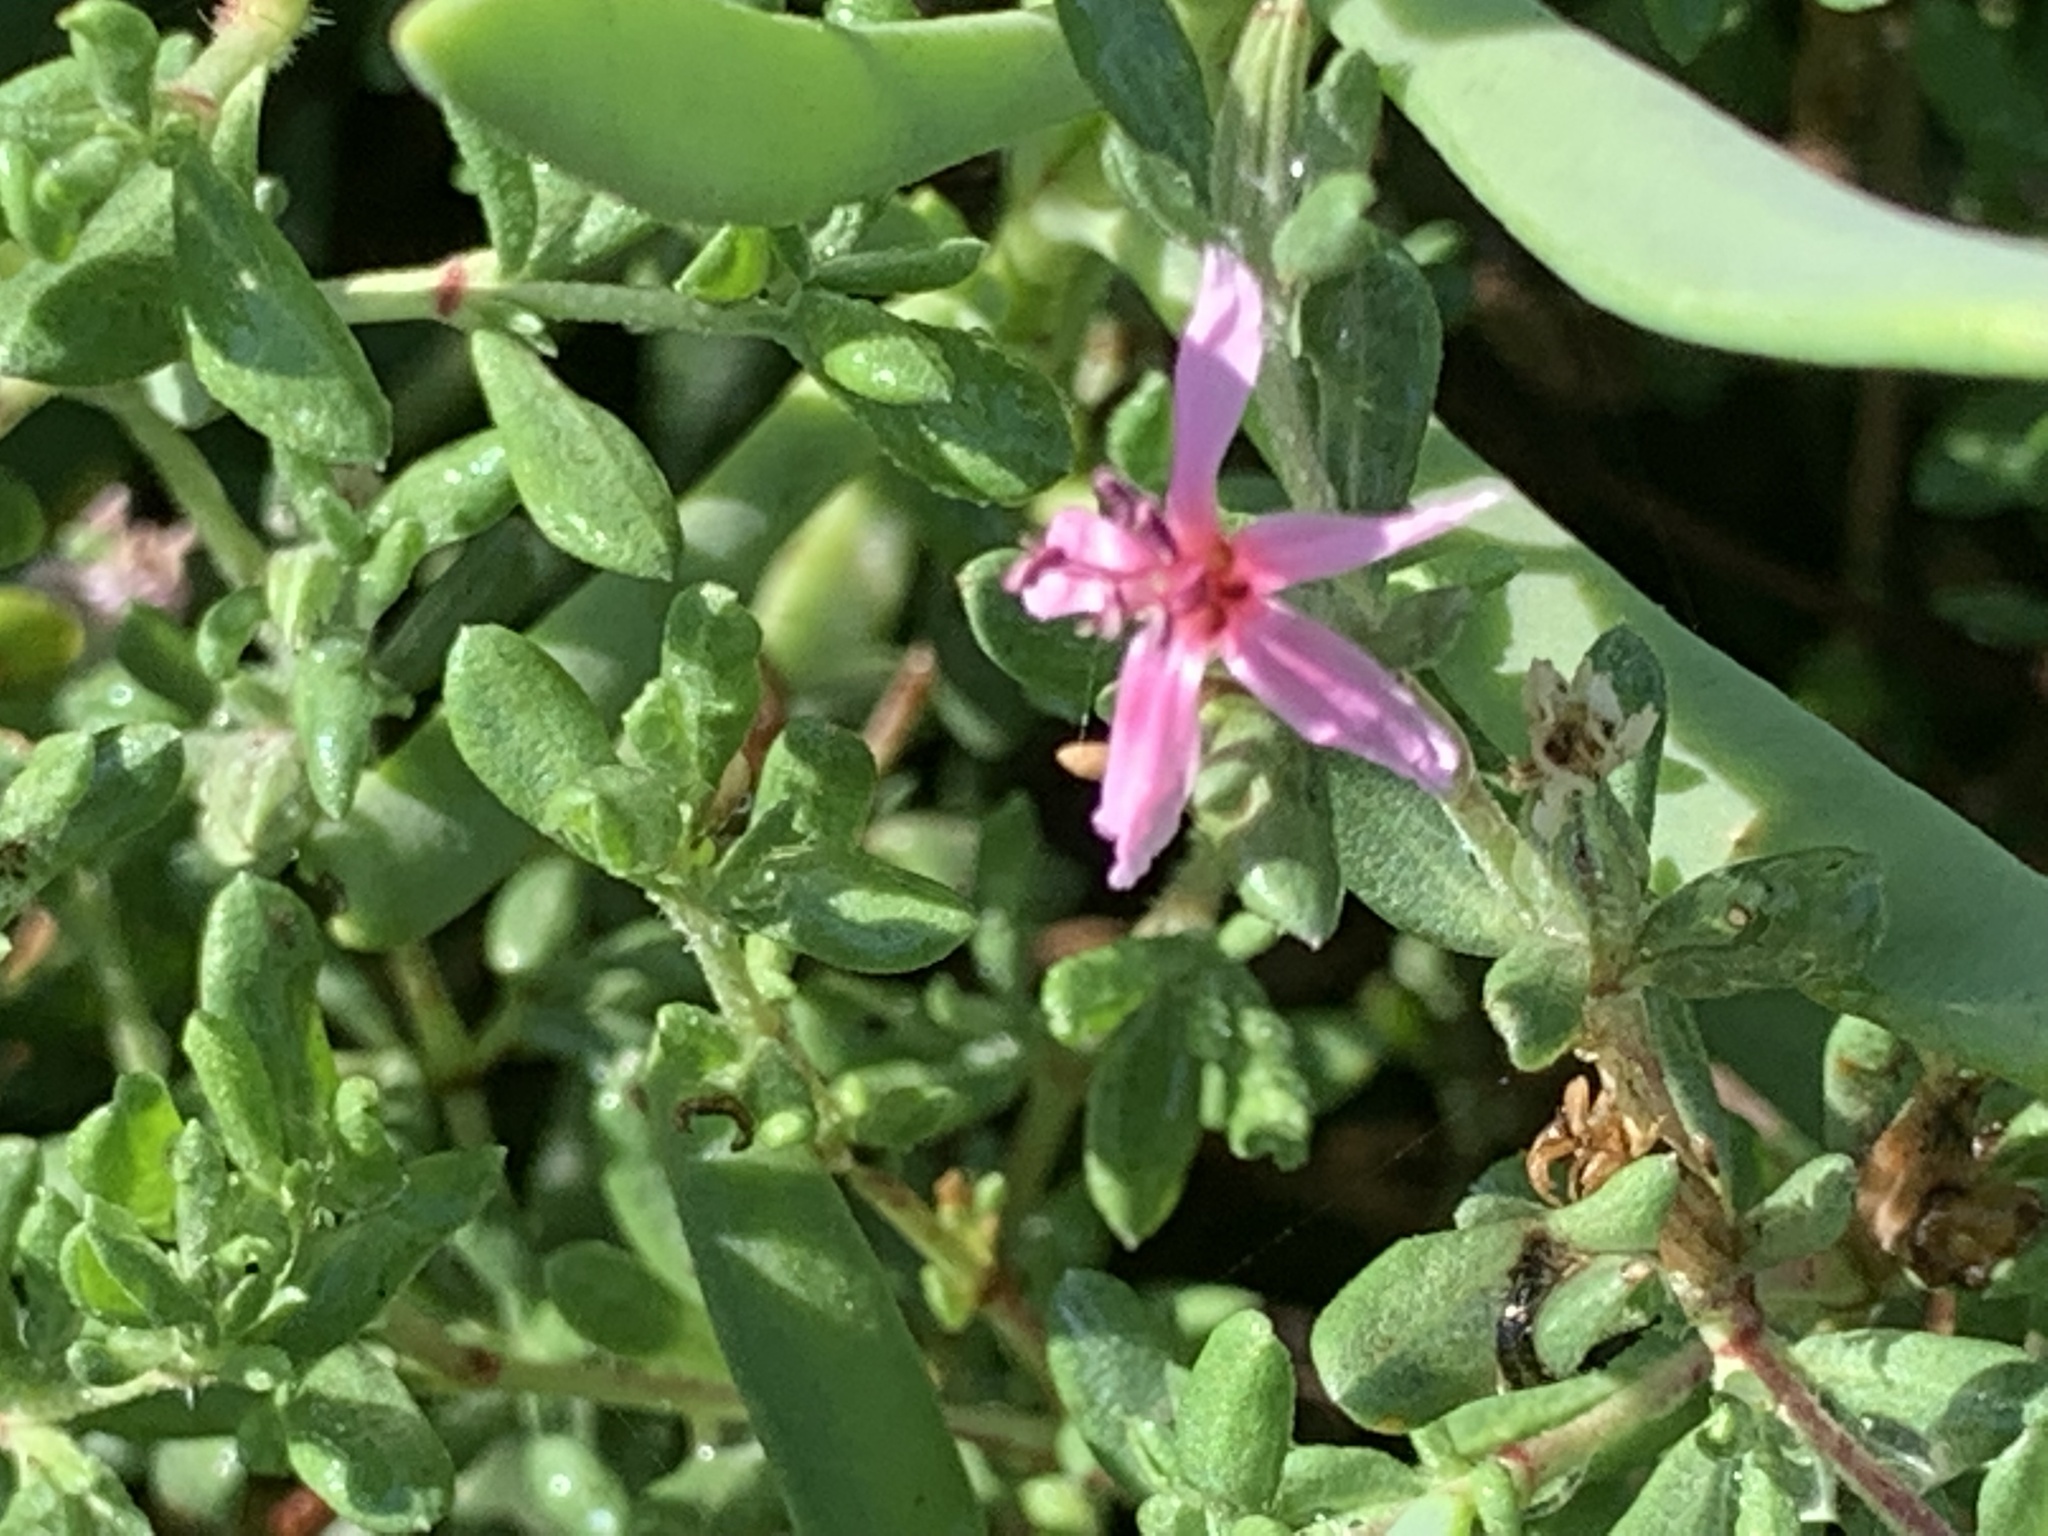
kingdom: Plantae
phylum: Tracheophyta
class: Magnoliopsida
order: Caryophyllales
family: Frankeniaceae
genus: Frankenia
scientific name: Frankenia salina
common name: Alkali seaheath
